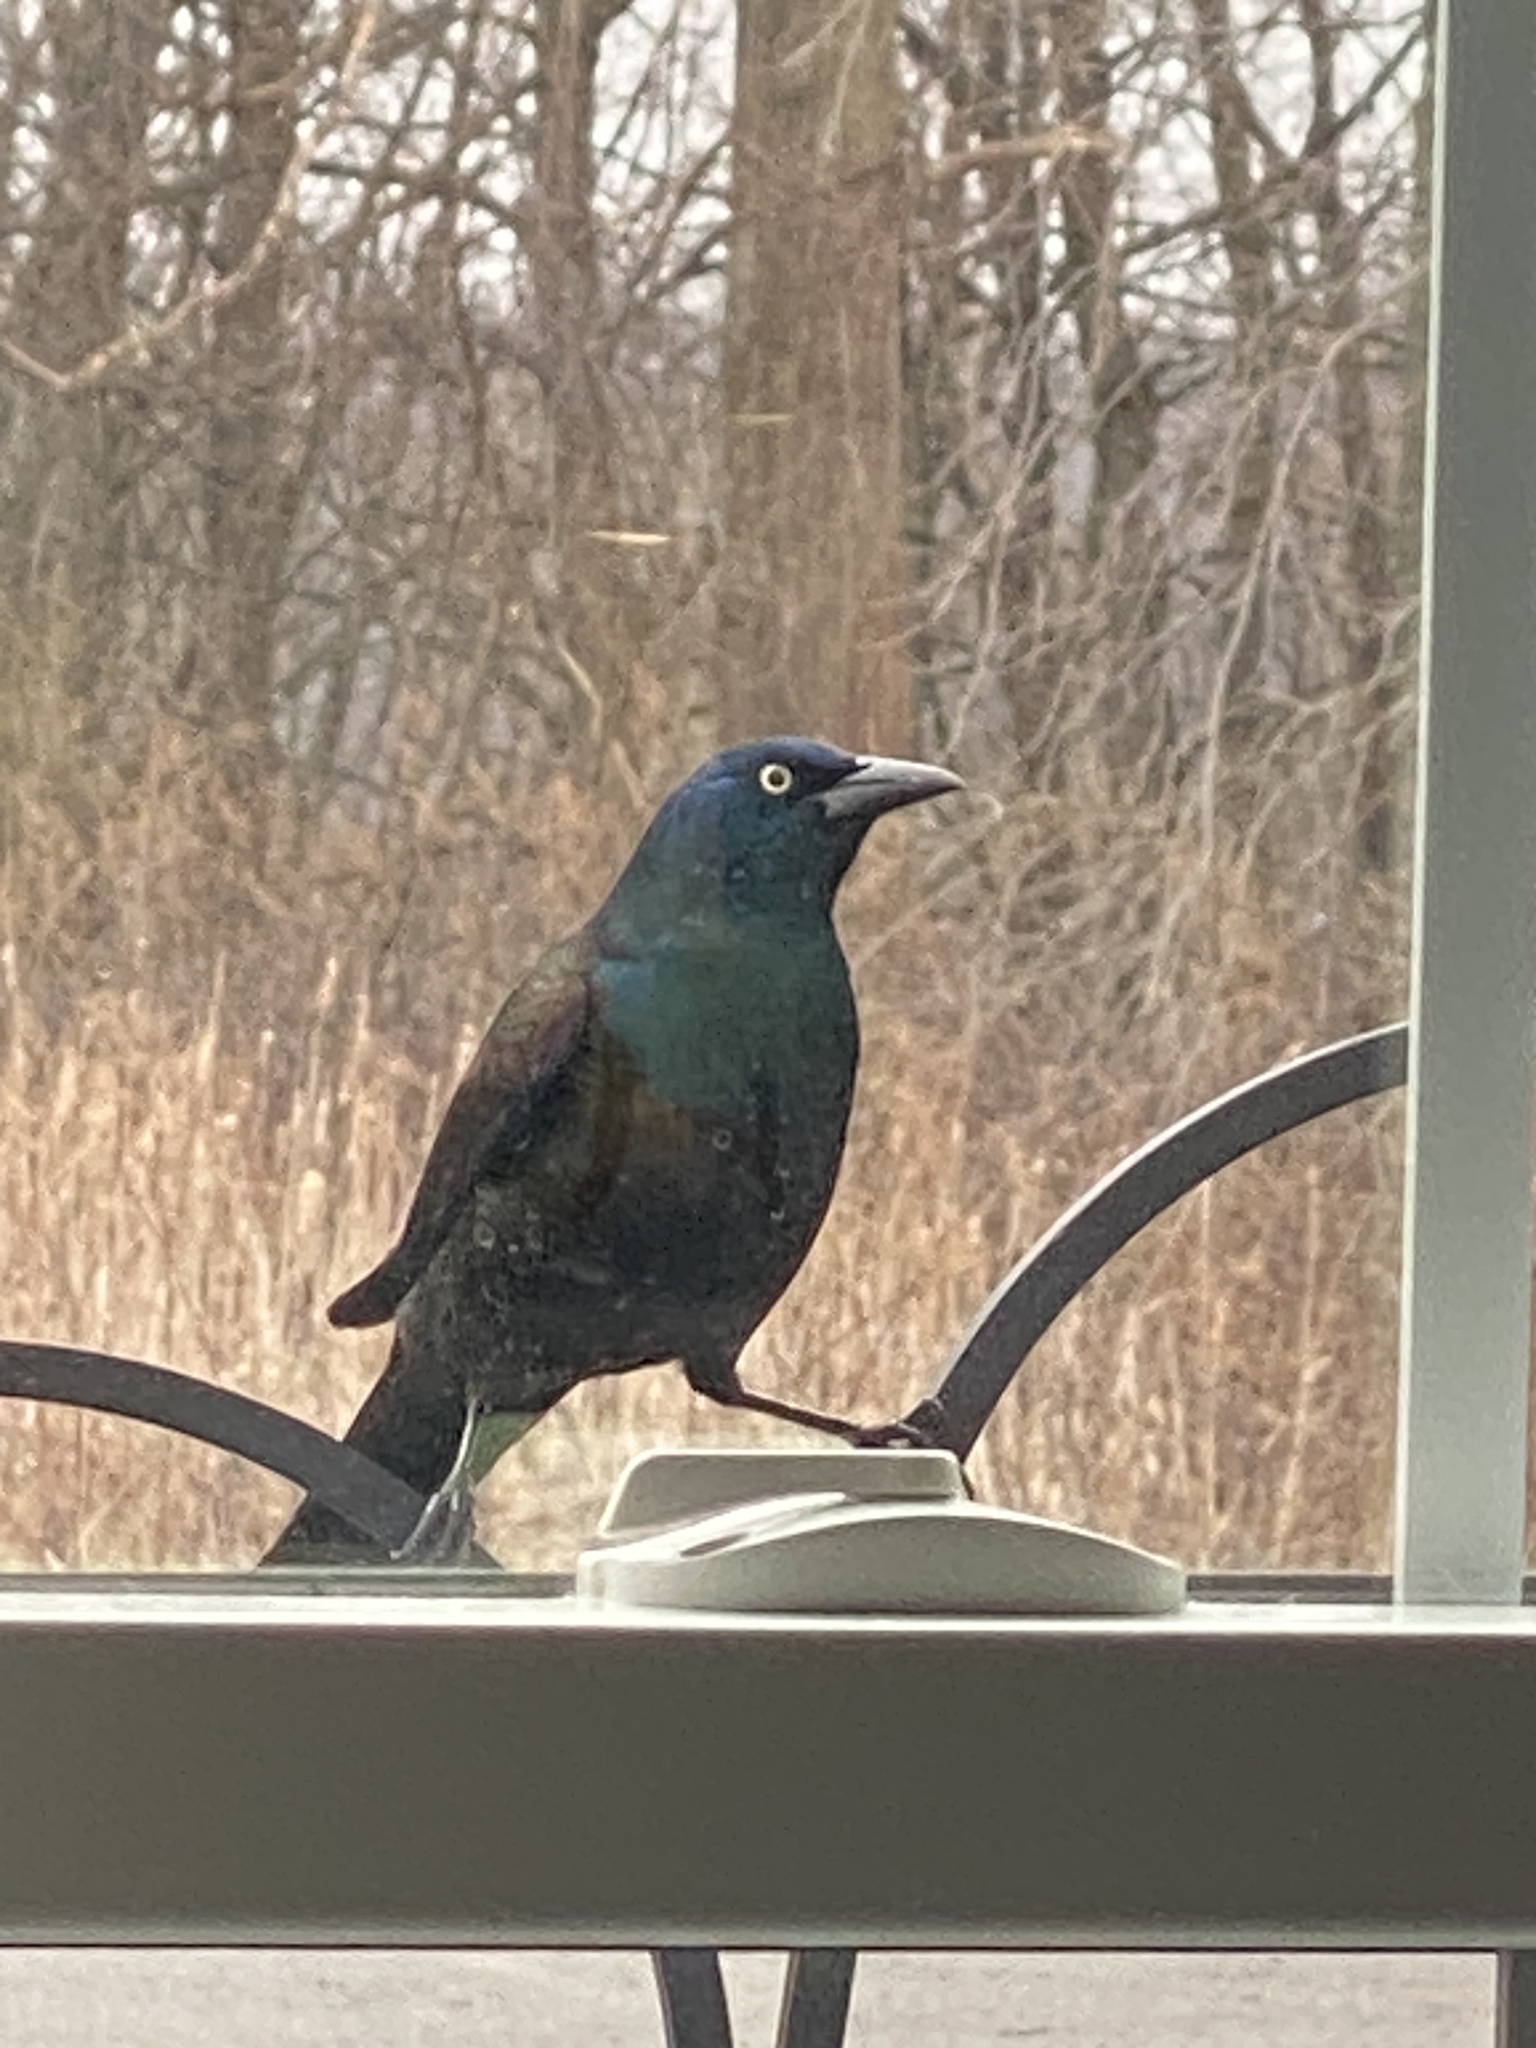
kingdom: Animalia
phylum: Chordata
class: Aves
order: Passeriformes
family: Icteridae
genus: Quiscalus
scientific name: Quiscalus quiscula
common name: Common grackle
